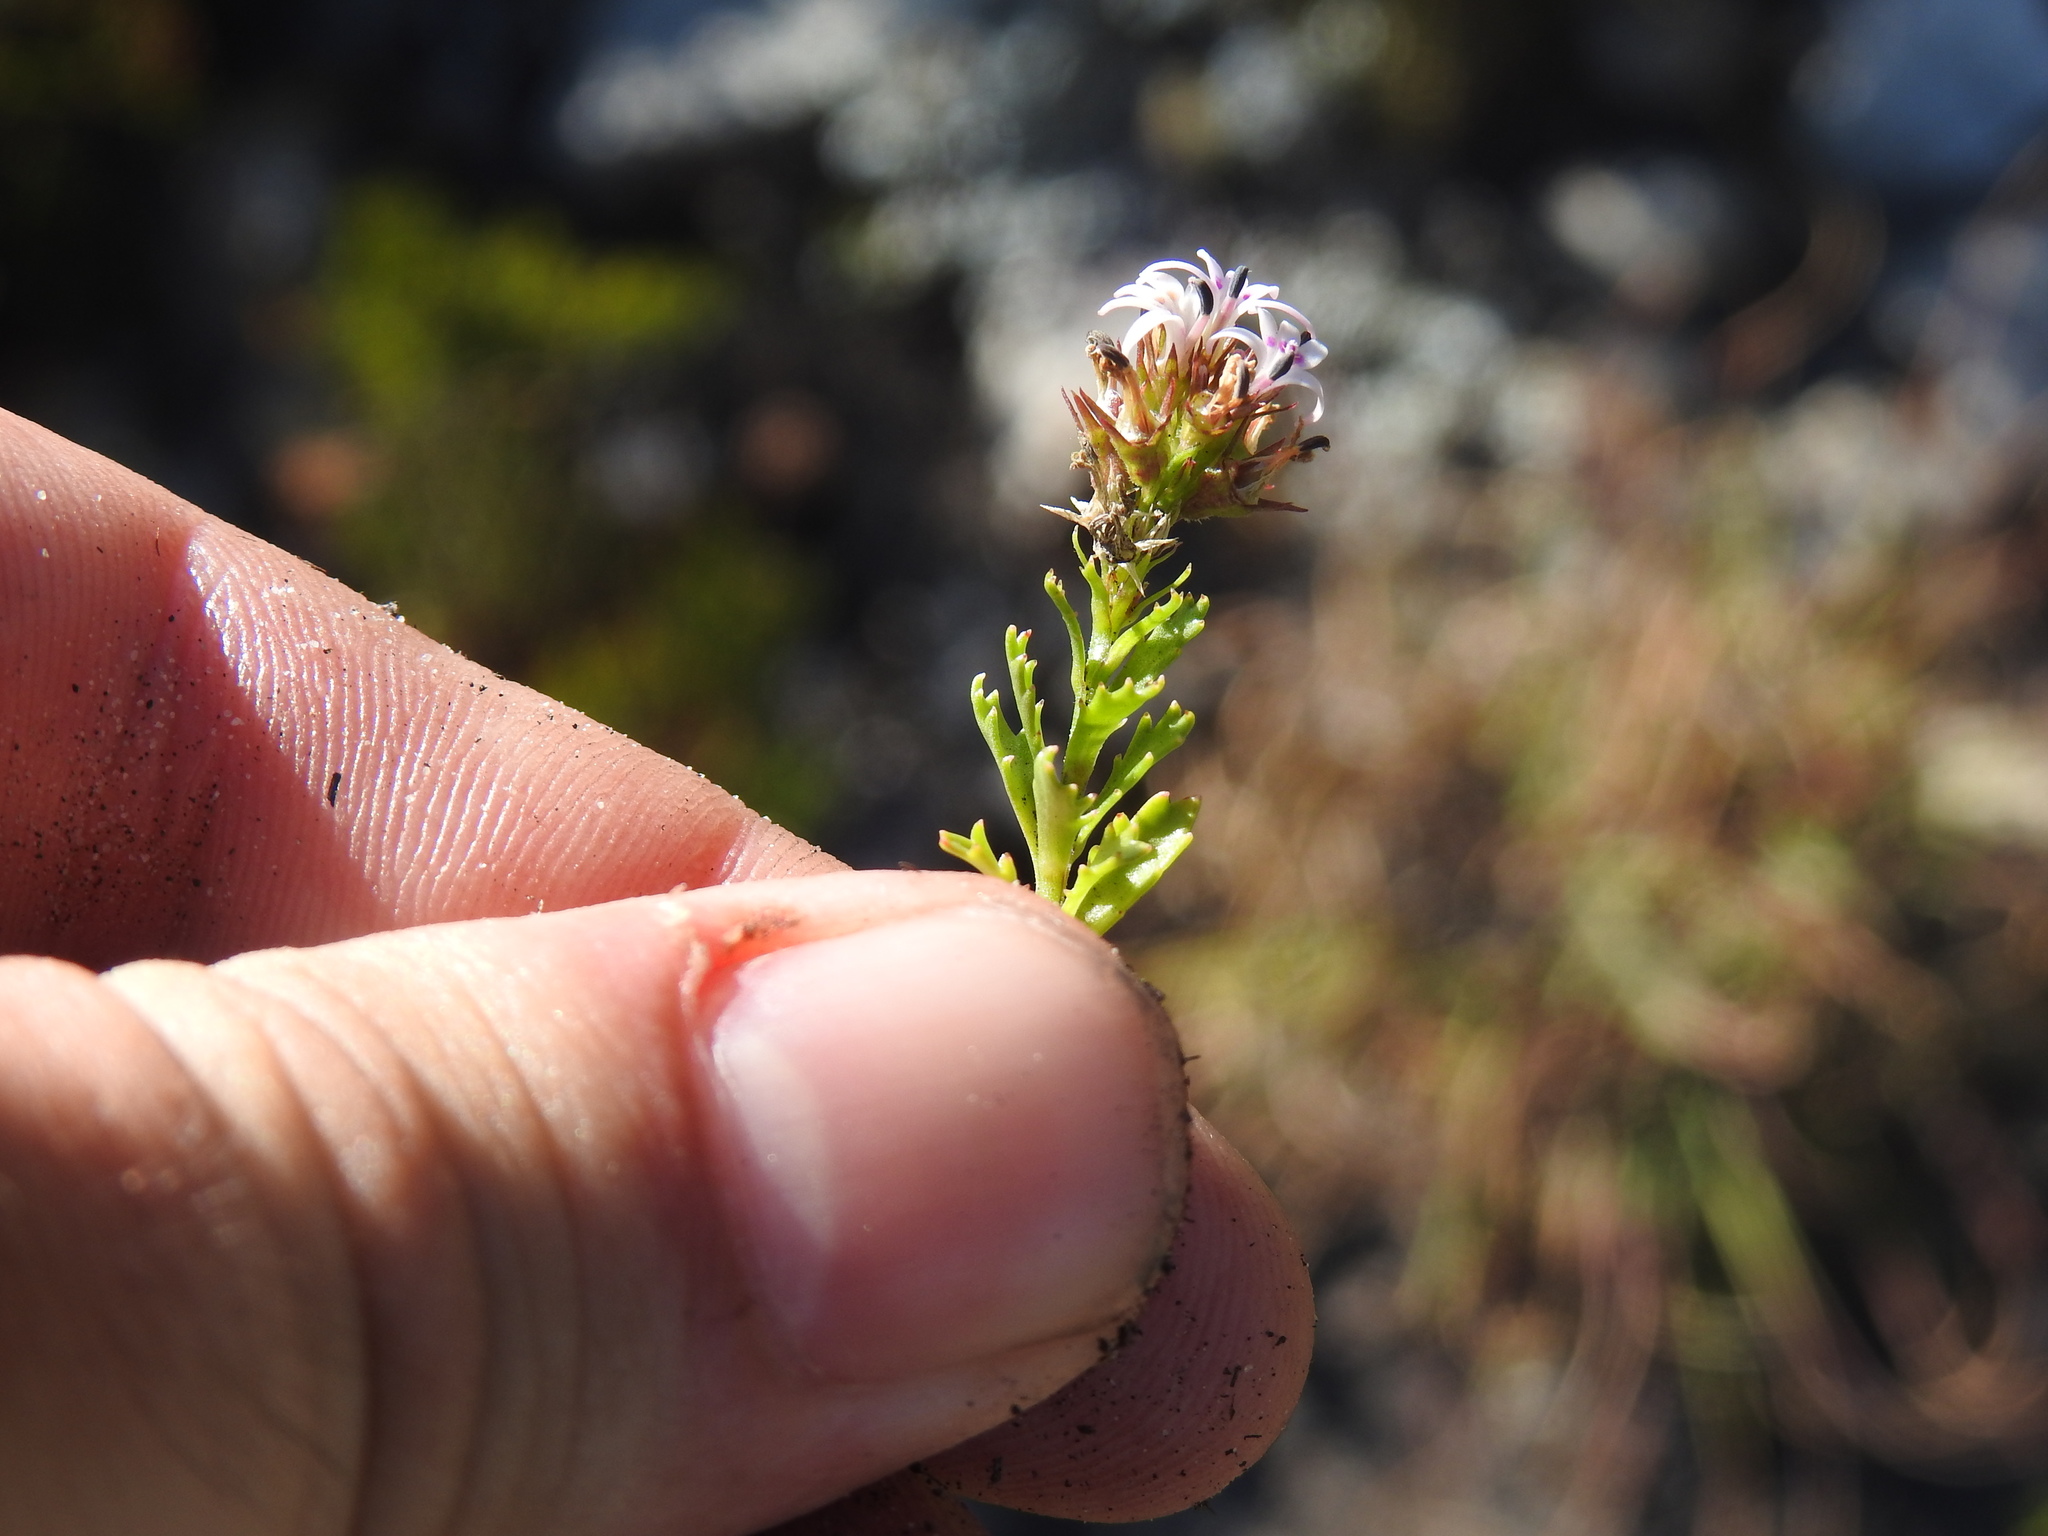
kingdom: Plantae
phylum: Tracheophyta
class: Magnoliopsida
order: Asterales
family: Campanulaceae
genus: Lobelia
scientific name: Lobelia jasionoides
